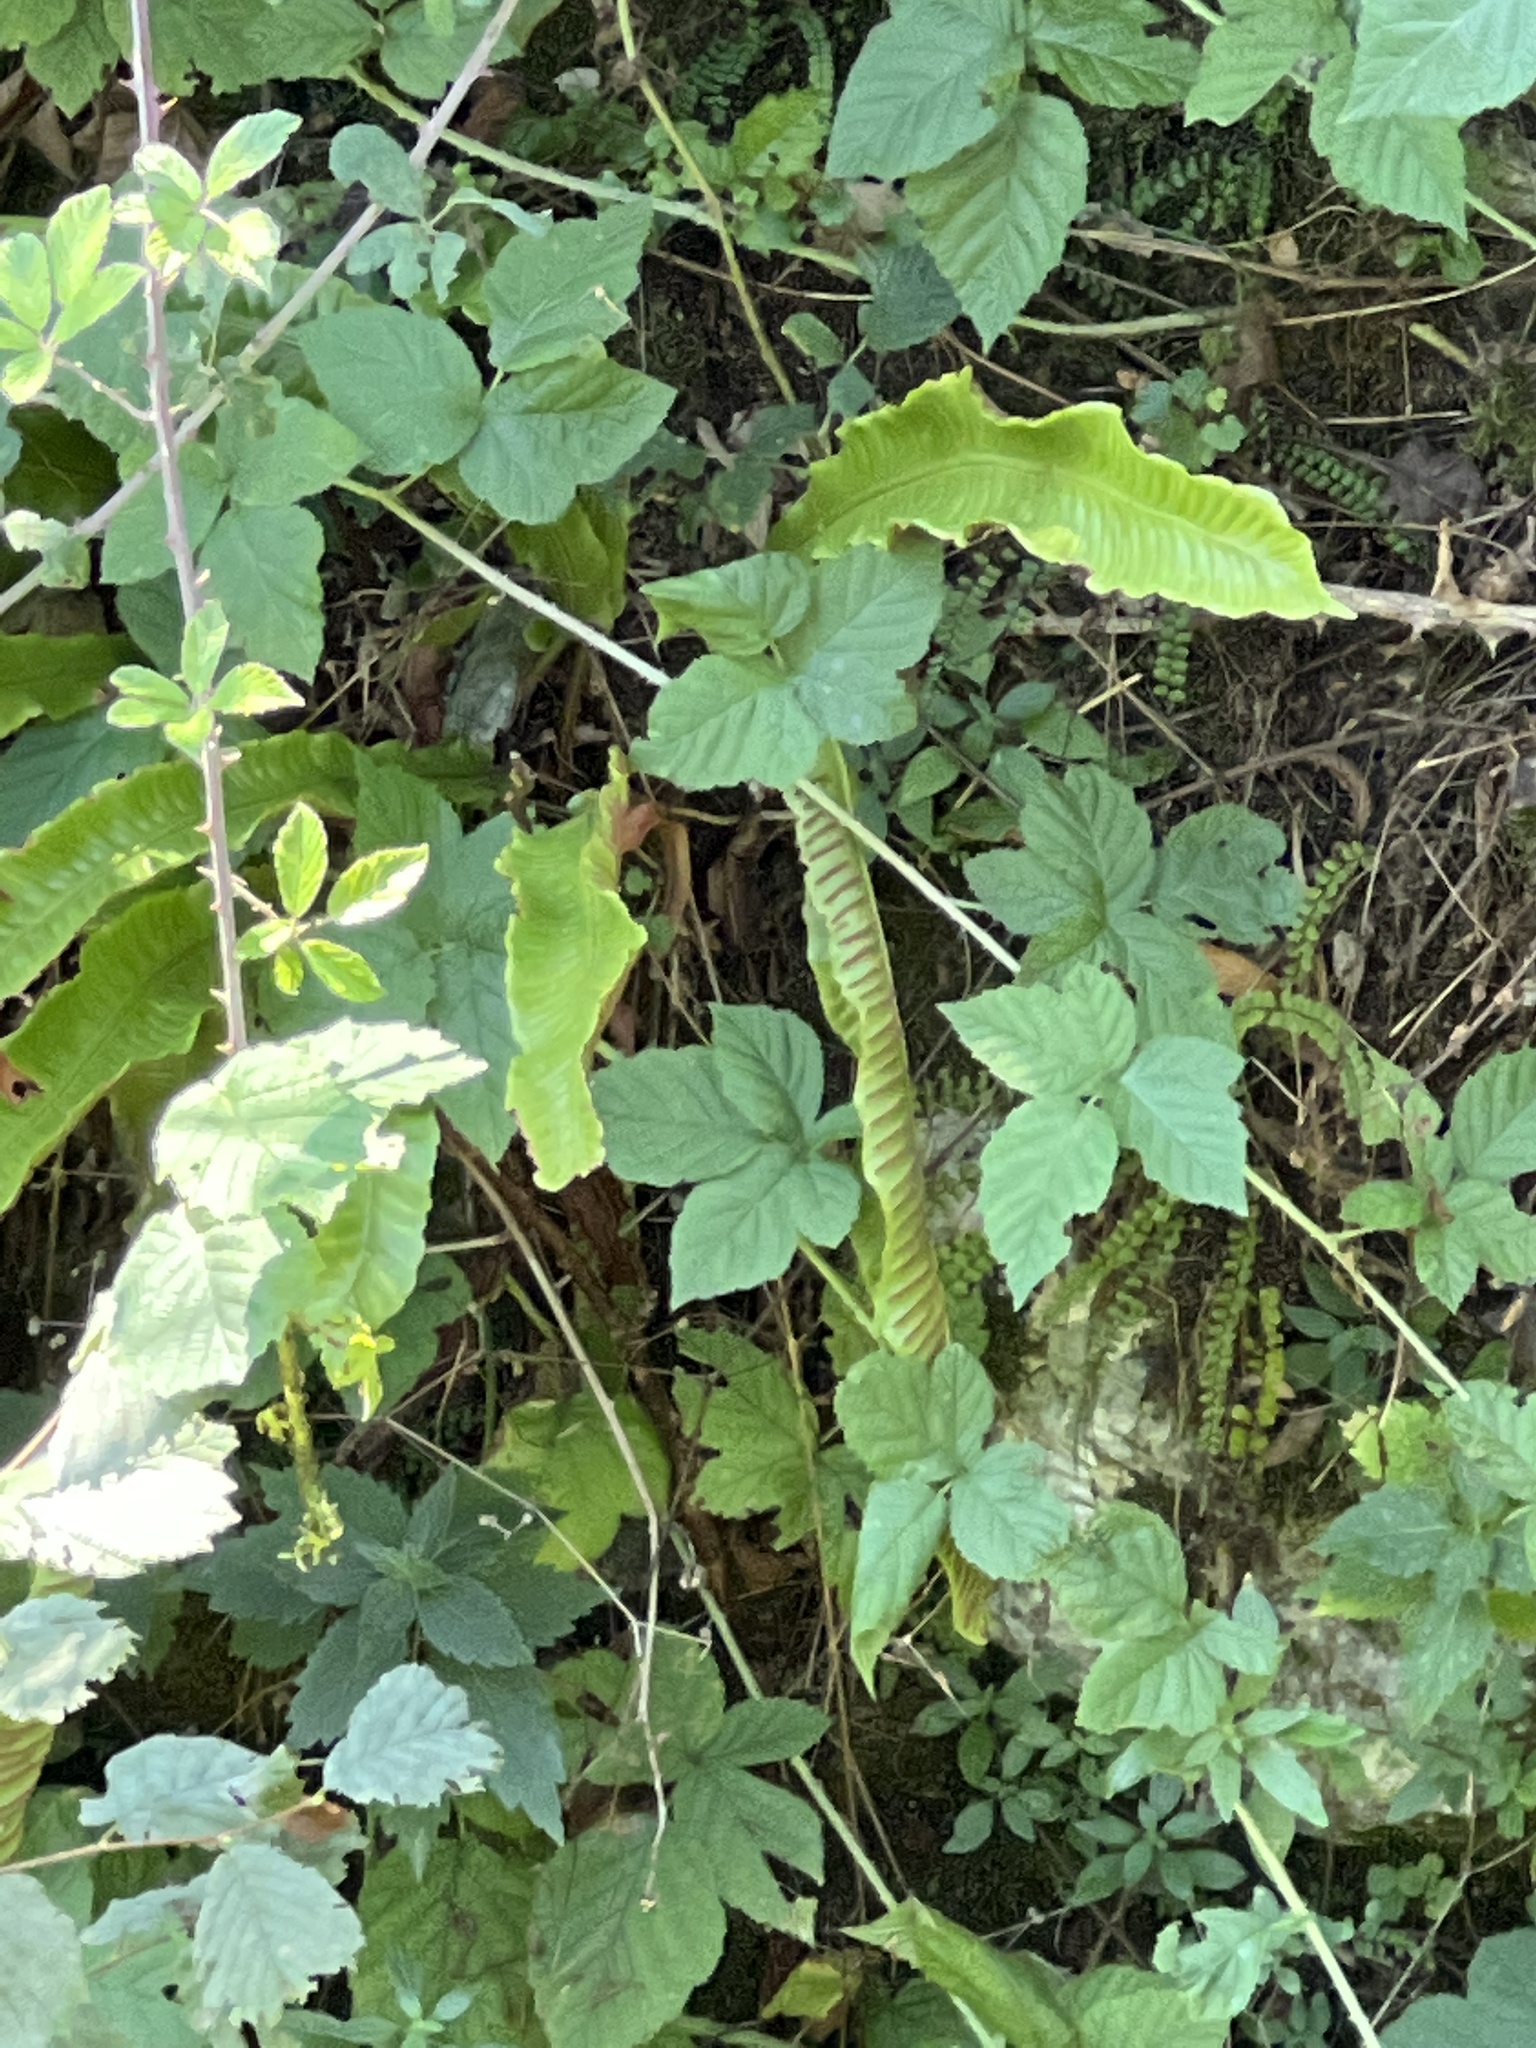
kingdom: Plantae
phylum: Tracheophyta
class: Polypodiopsida
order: Polypodiales
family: Aspleniaceae
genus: Asplenium
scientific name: Asplenium scolopendrium
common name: Hart's-tongue fern
